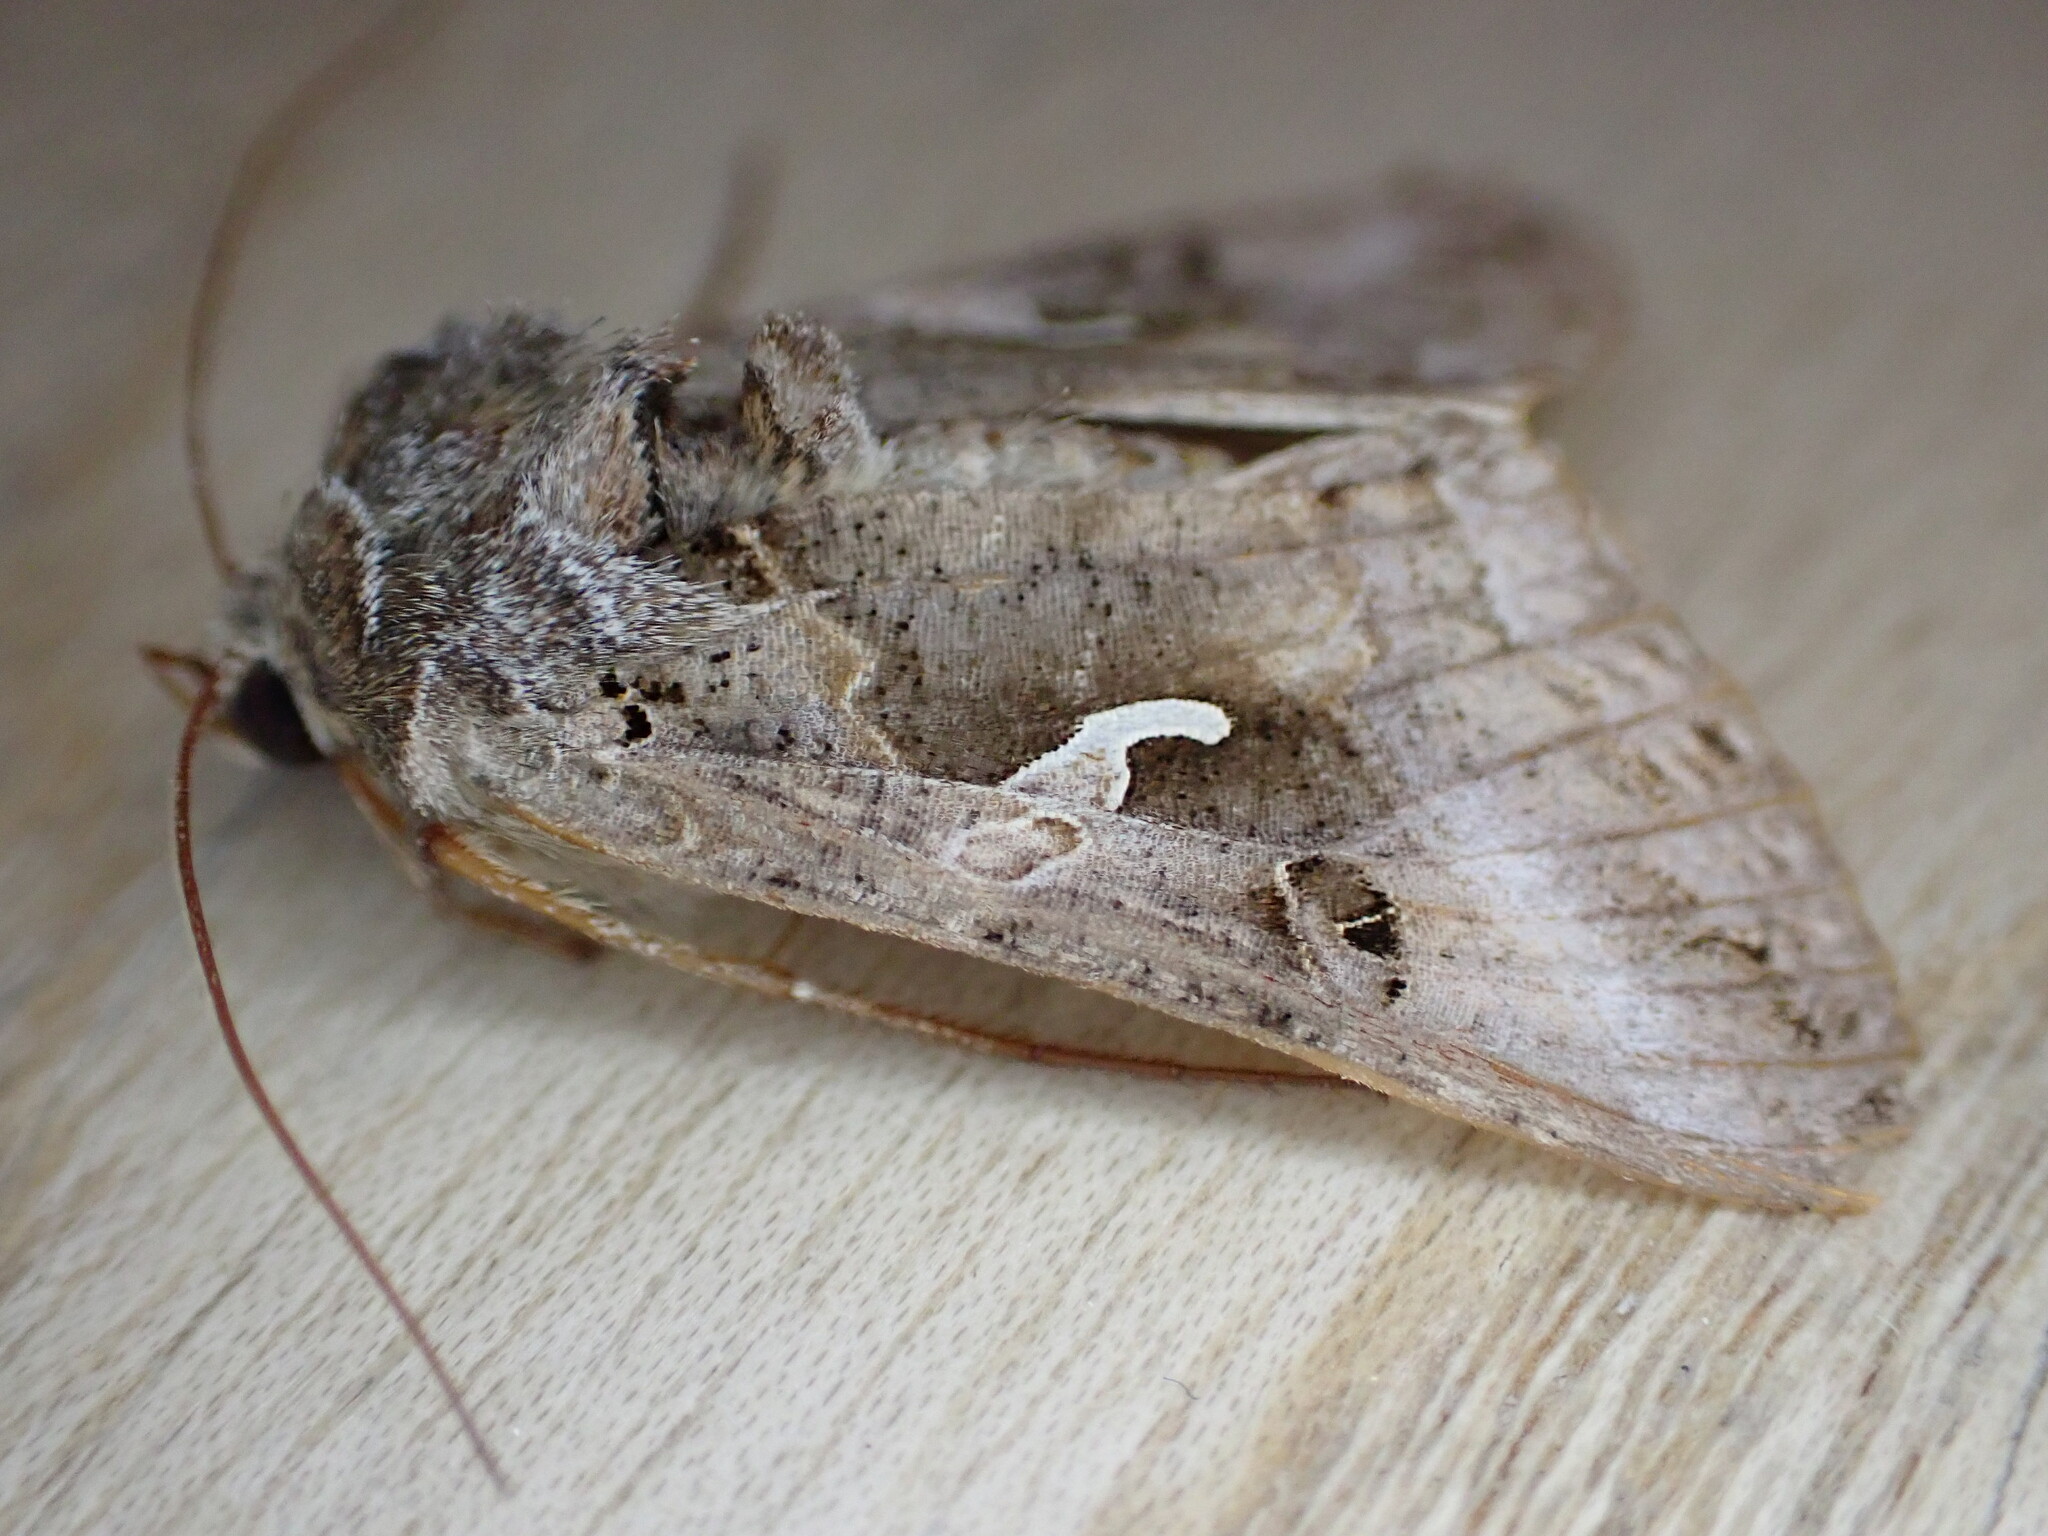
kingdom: Animalia
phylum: Arthropoda
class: Insecta
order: Lepidoptera
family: Noctuidae
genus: Autographa
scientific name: Autographa gamma
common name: Silver y
